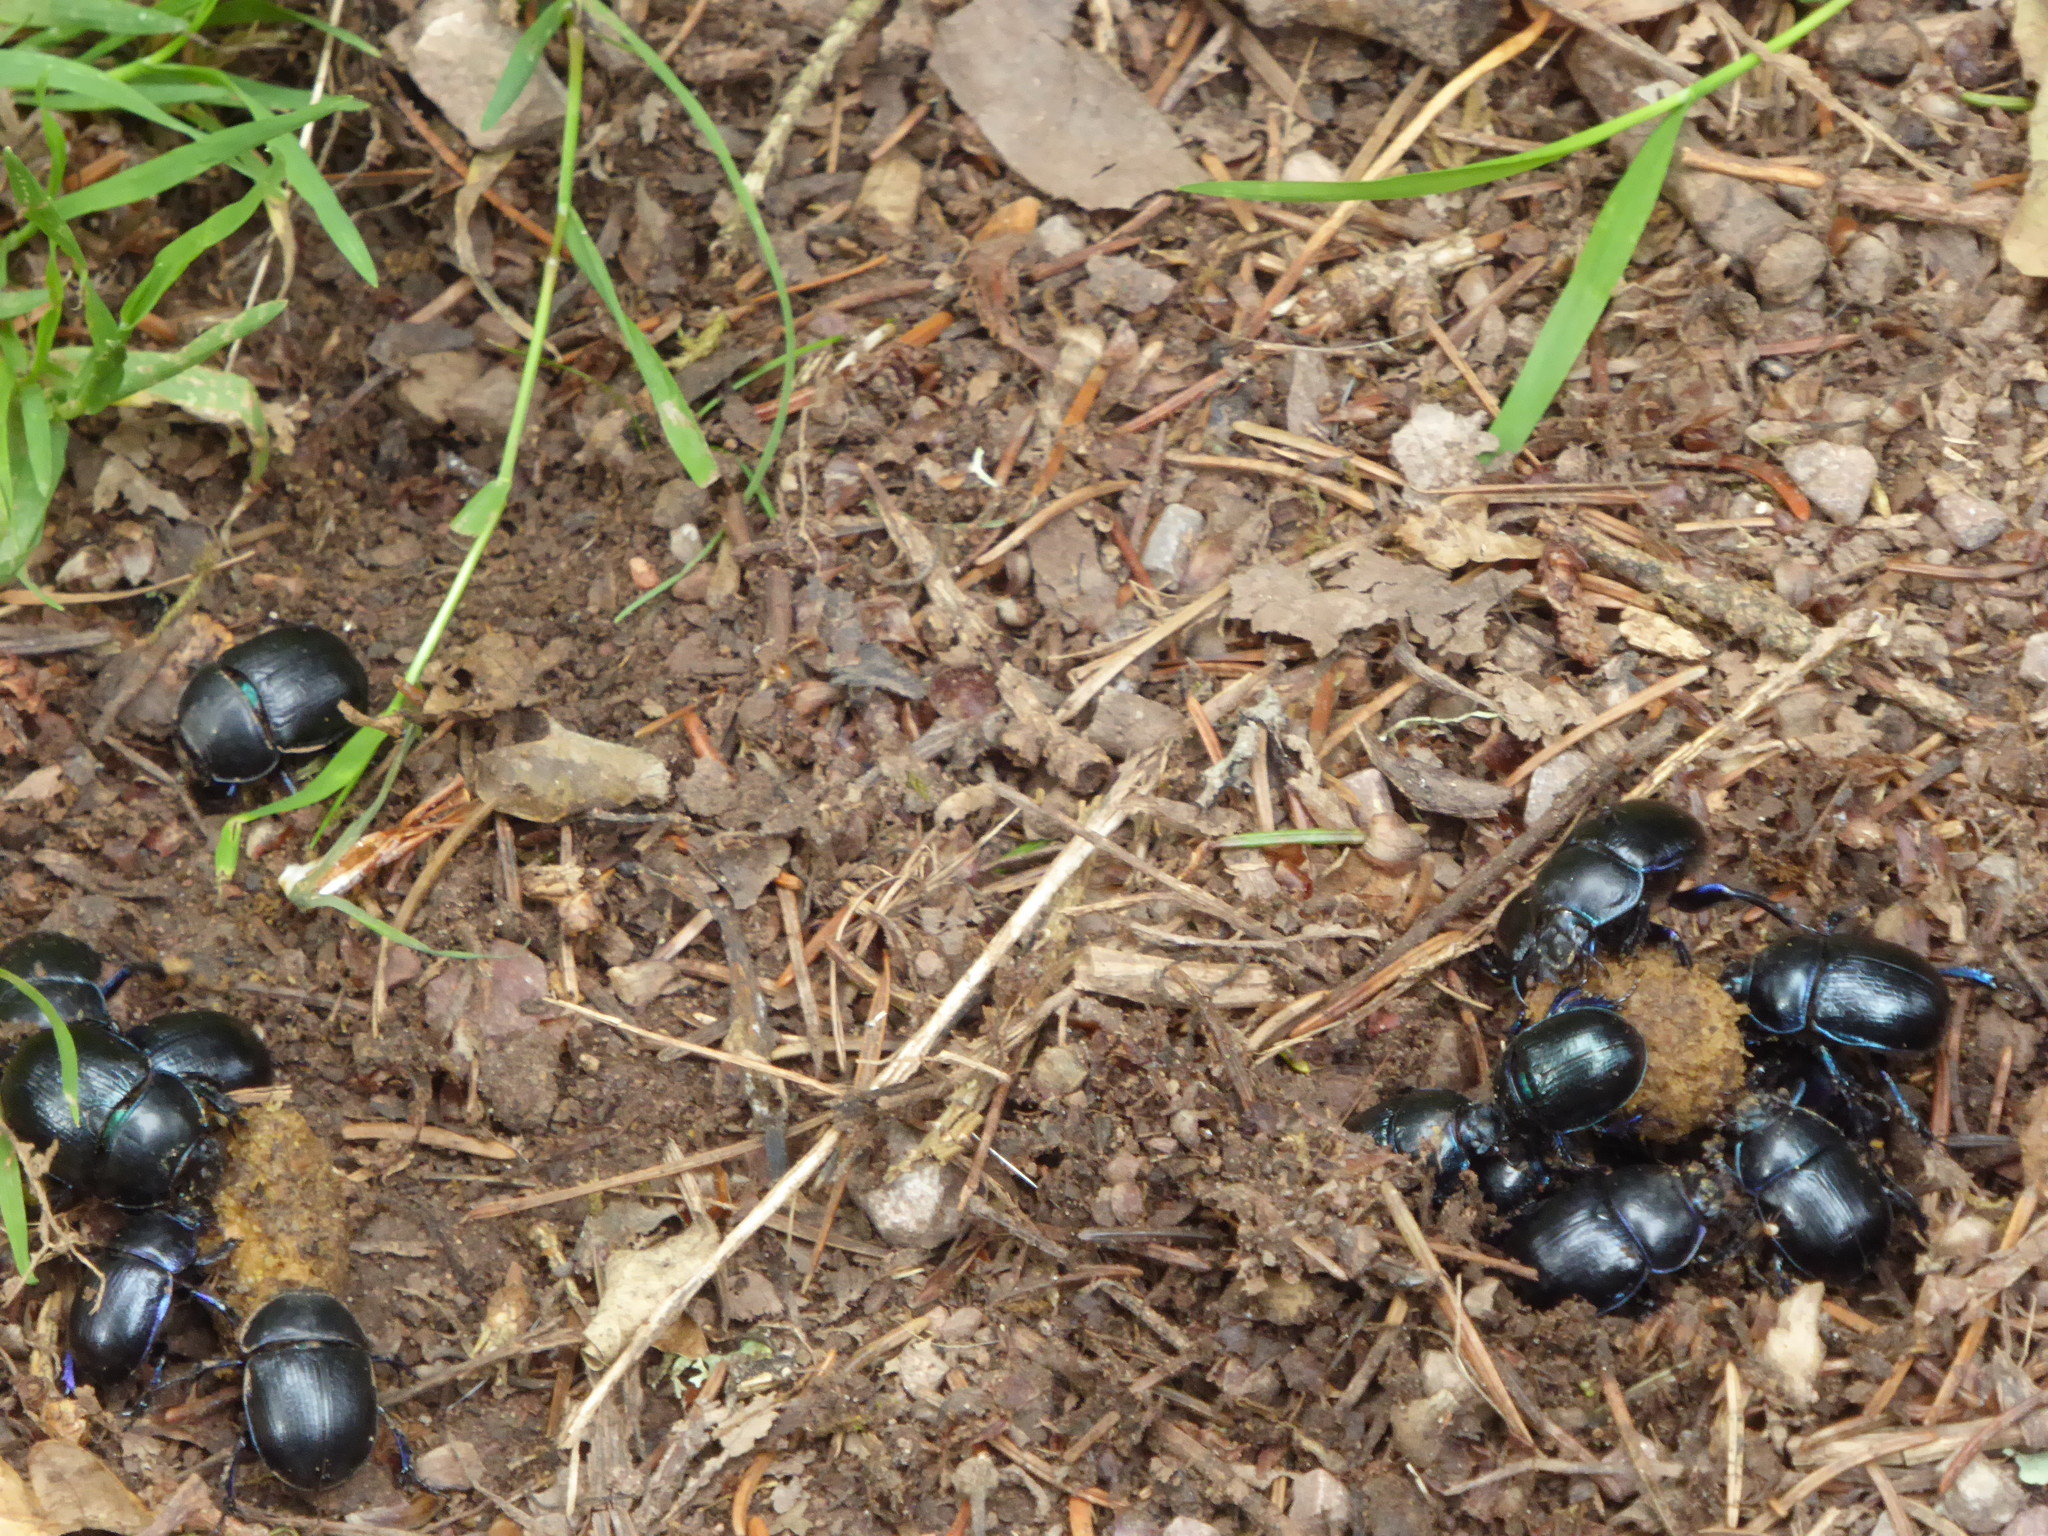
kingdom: Animalia
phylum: Arthropoda
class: Insecta
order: Coleoptera
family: Geotrupidae
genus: Anoplotrupes
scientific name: Anoplotrupes stercorosus
